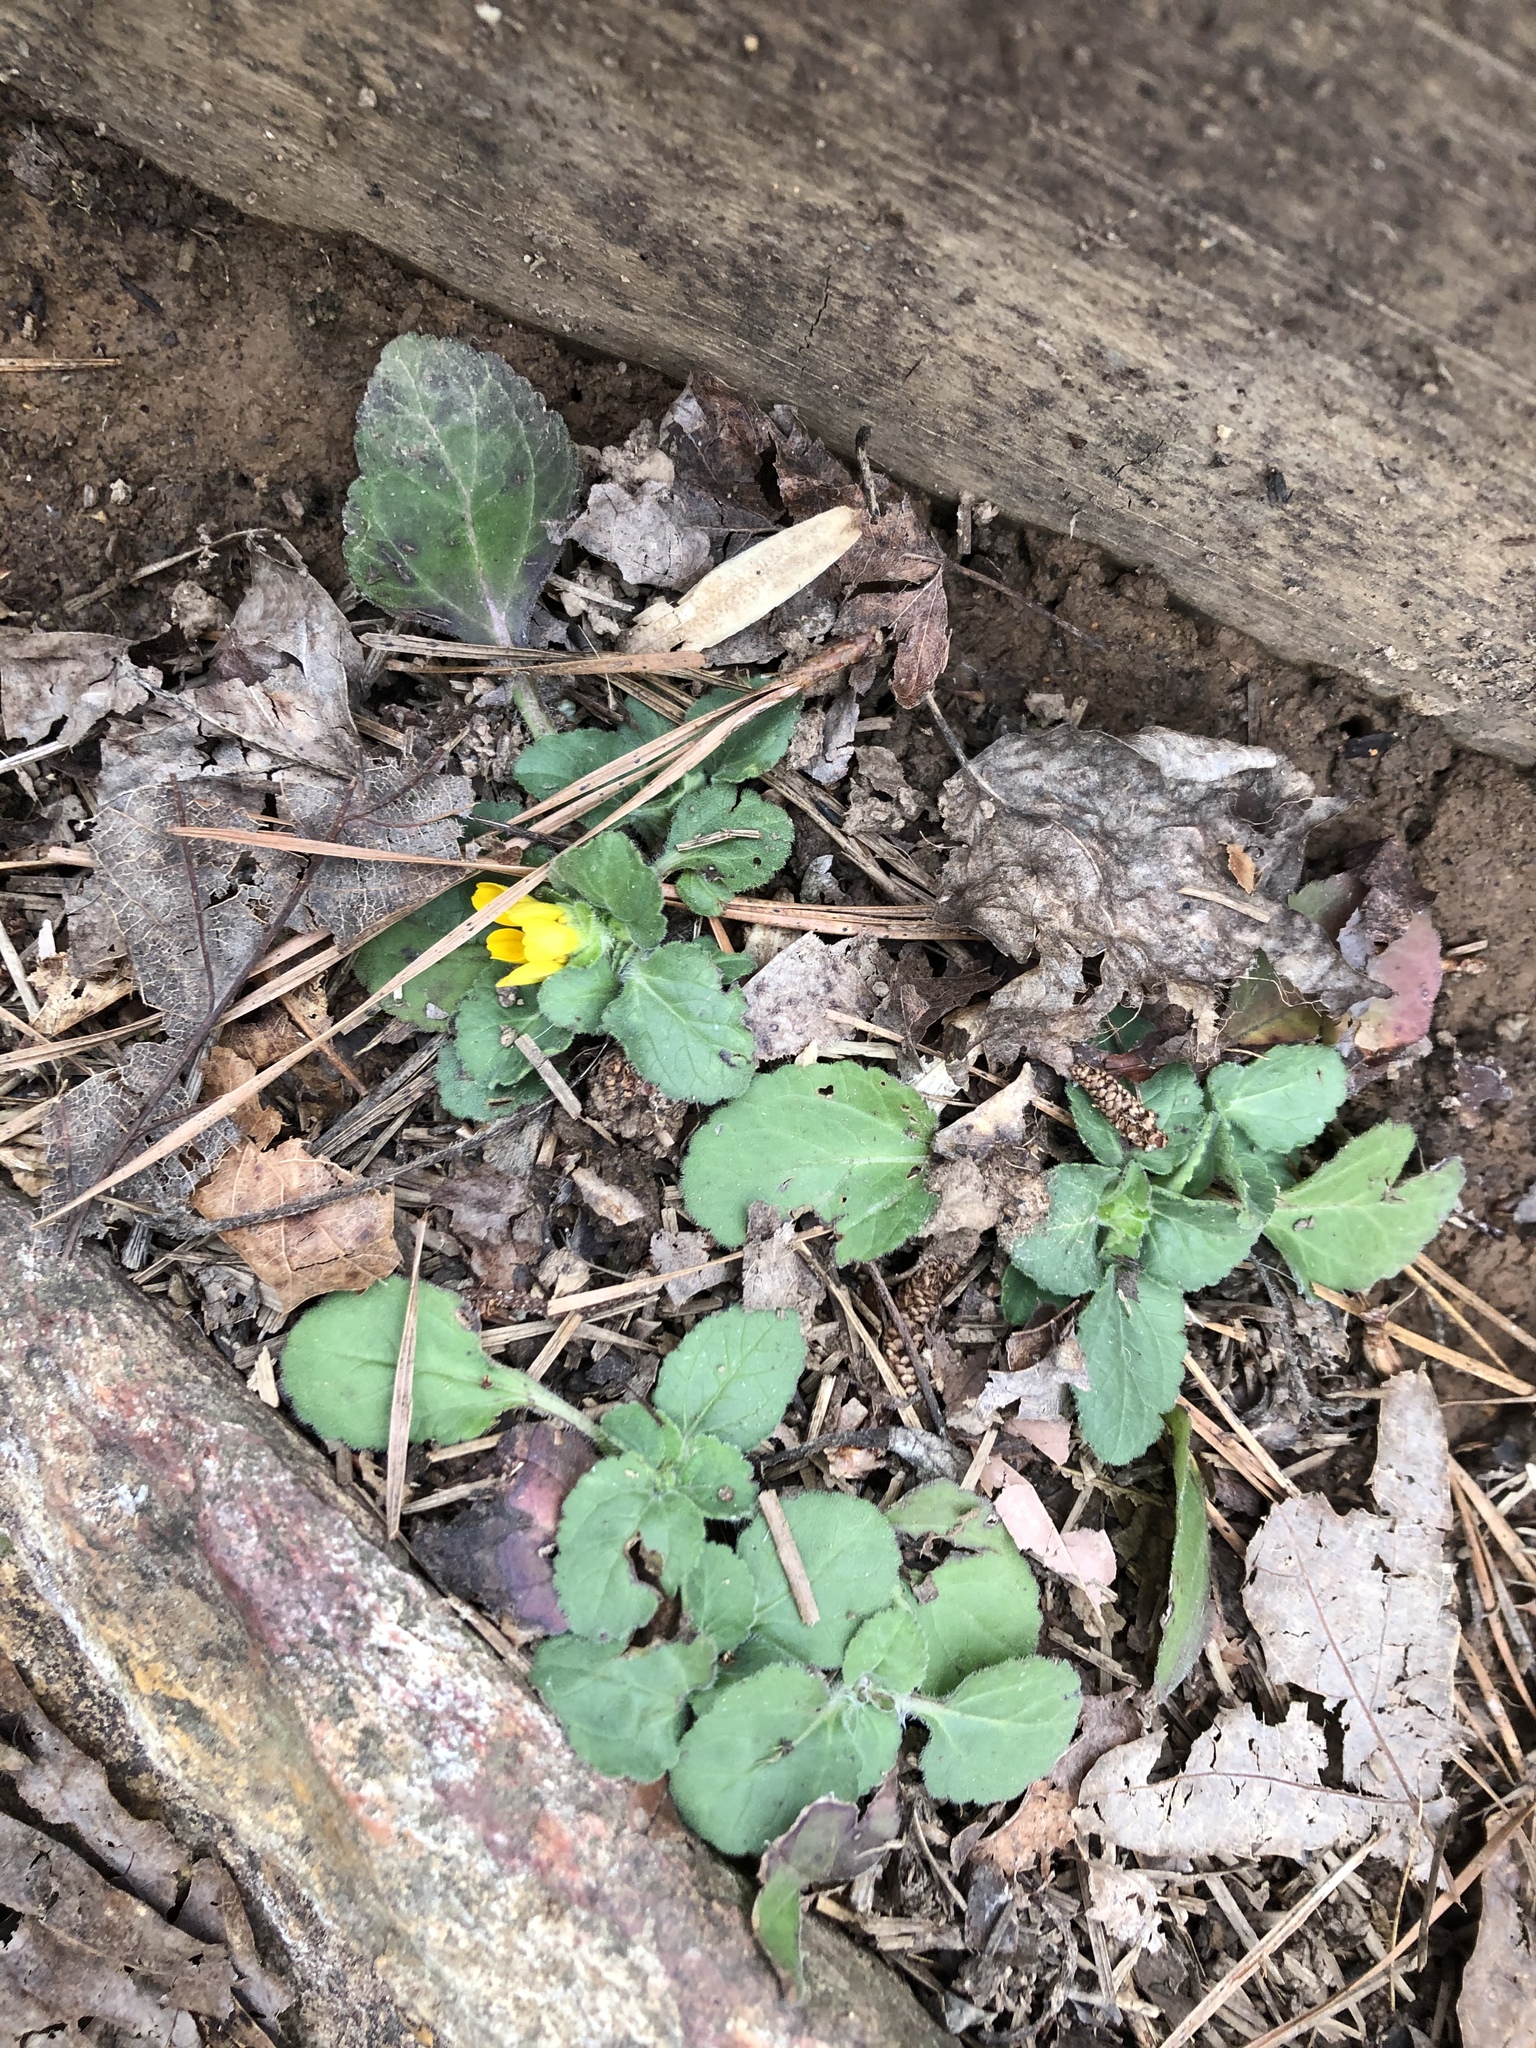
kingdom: Plantae
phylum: Tracheophyta
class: Magnoliopsida
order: Asterales
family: Asteraceae
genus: Chrysogonum
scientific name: Chrysogonum virginianum
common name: Golden-knee
